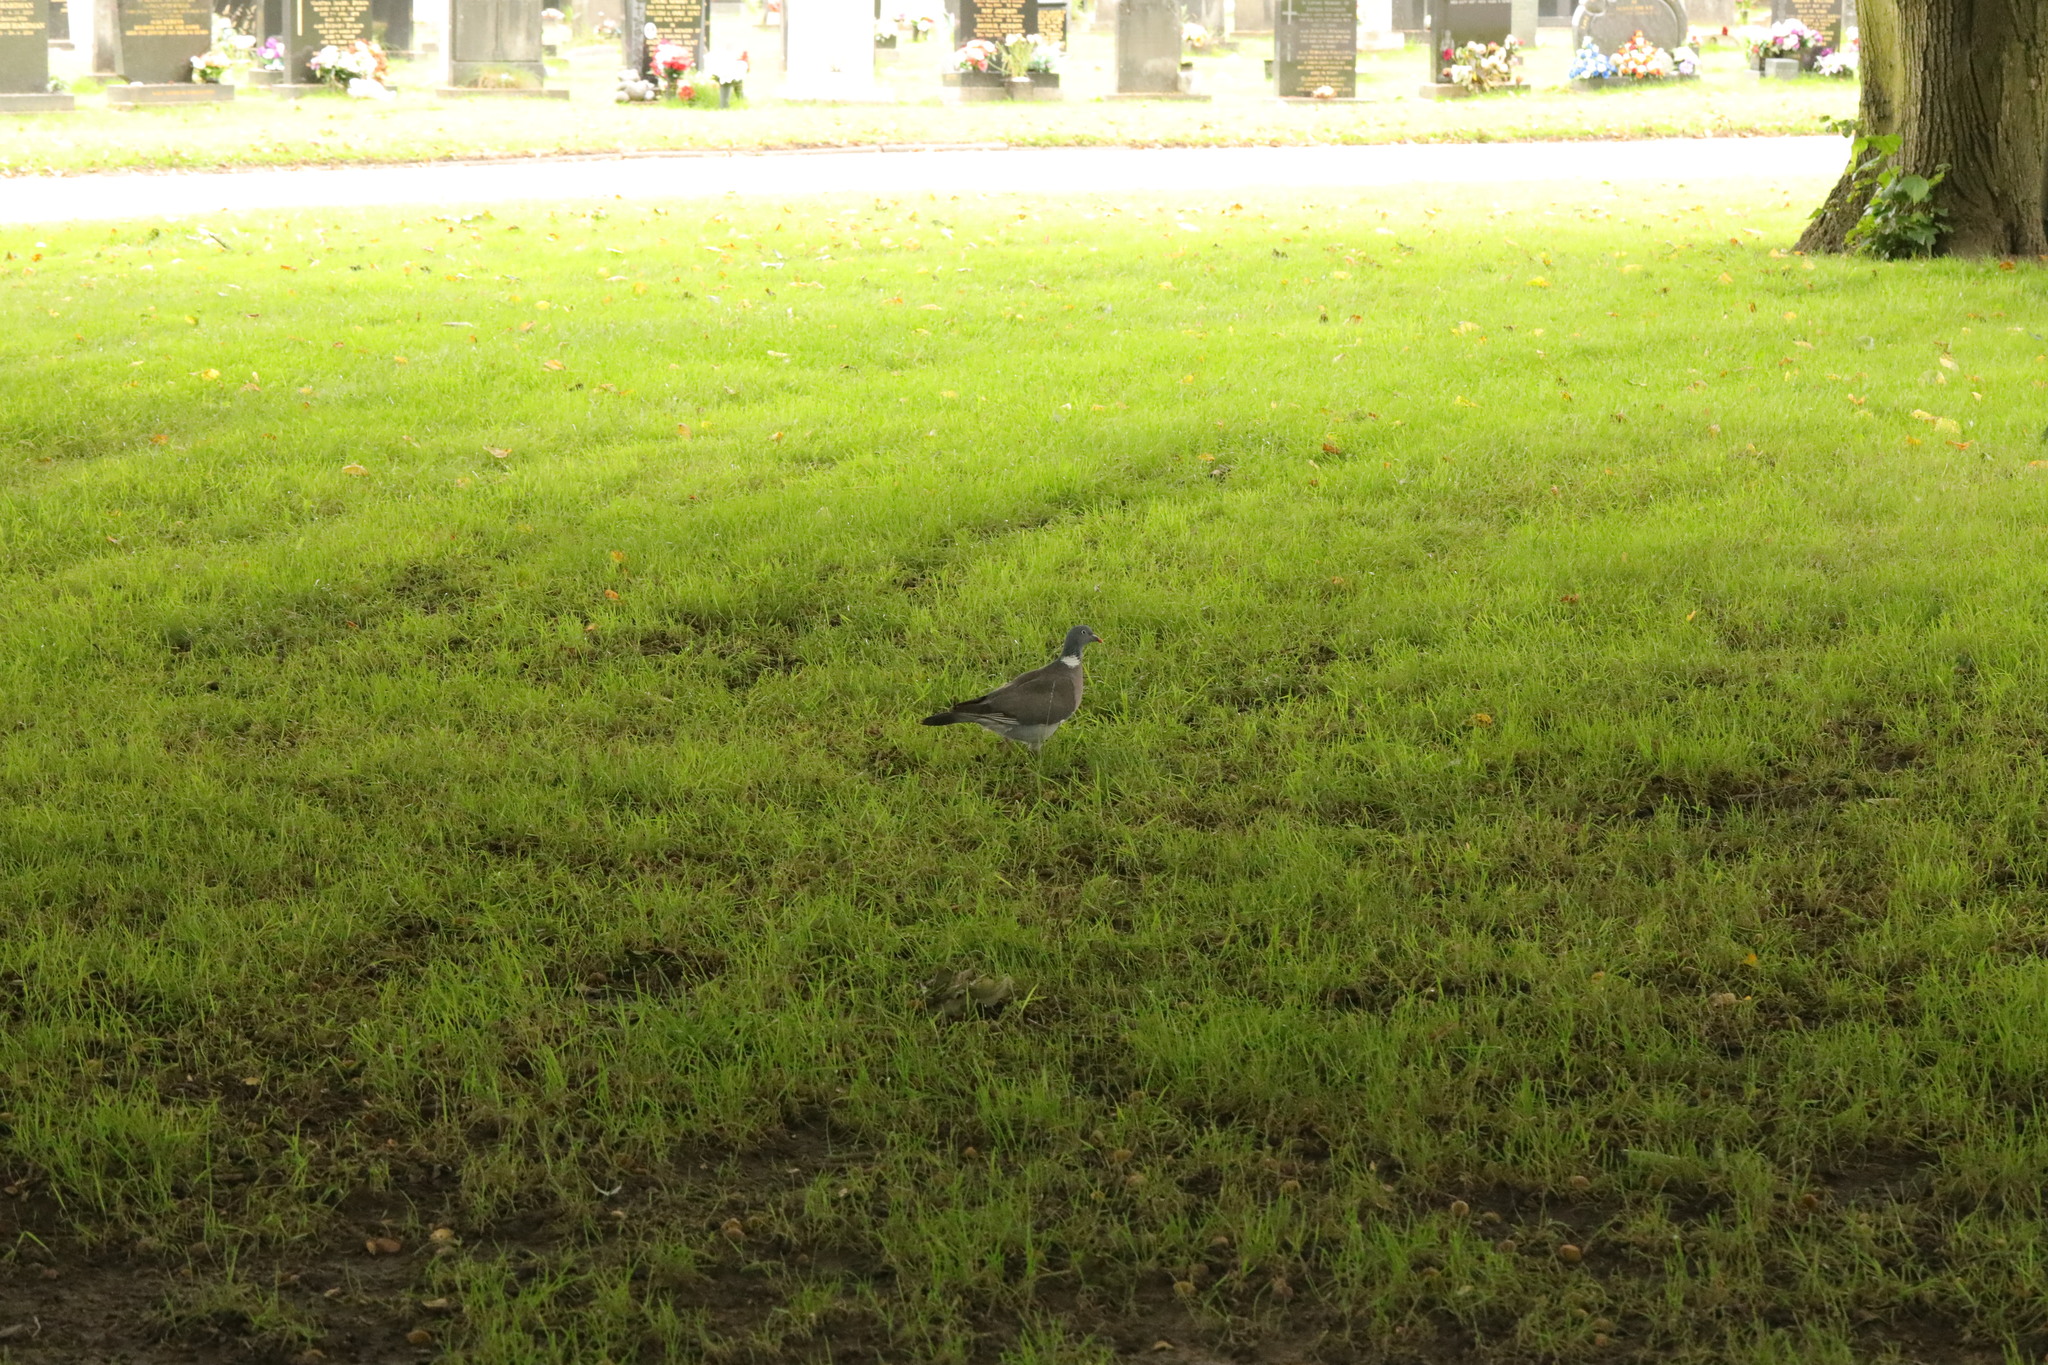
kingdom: Animalia
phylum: Chordata
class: Aves
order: Columbiformes
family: Columbidae
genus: Columba
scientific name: Columba palumbus
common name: Common wood pigeon
